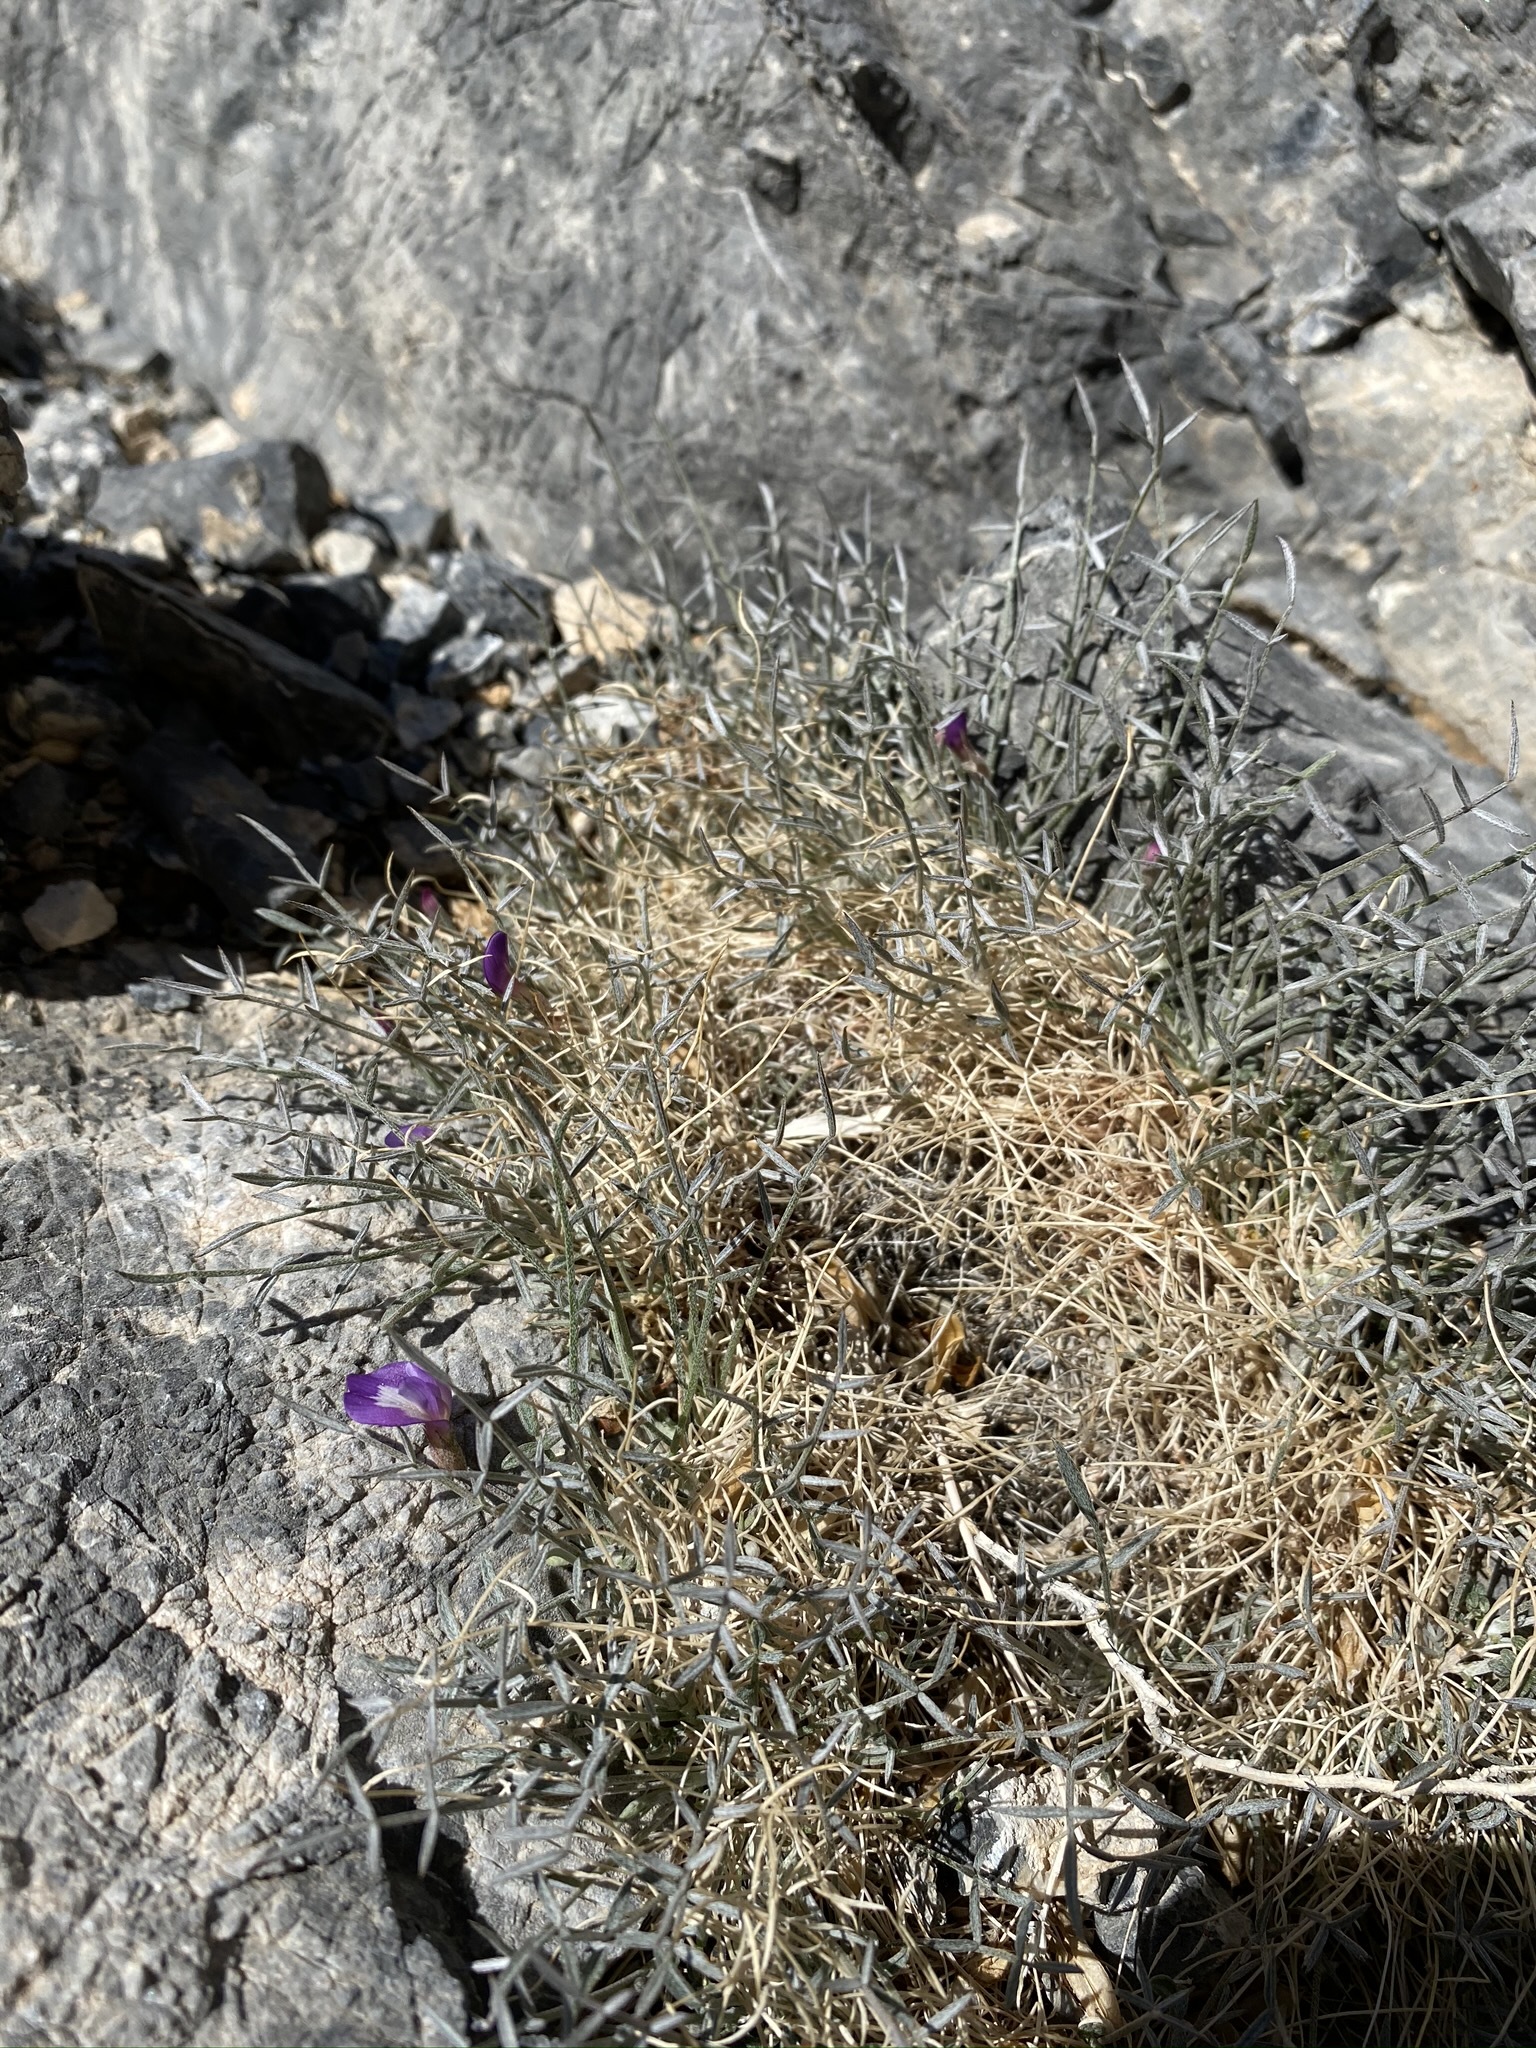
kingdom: Plantae
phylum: Tracheophyta
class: Magnoliopsida
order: Fabales
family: Fabaceae
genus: Astragalus
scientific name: Astragalus panamintensis
